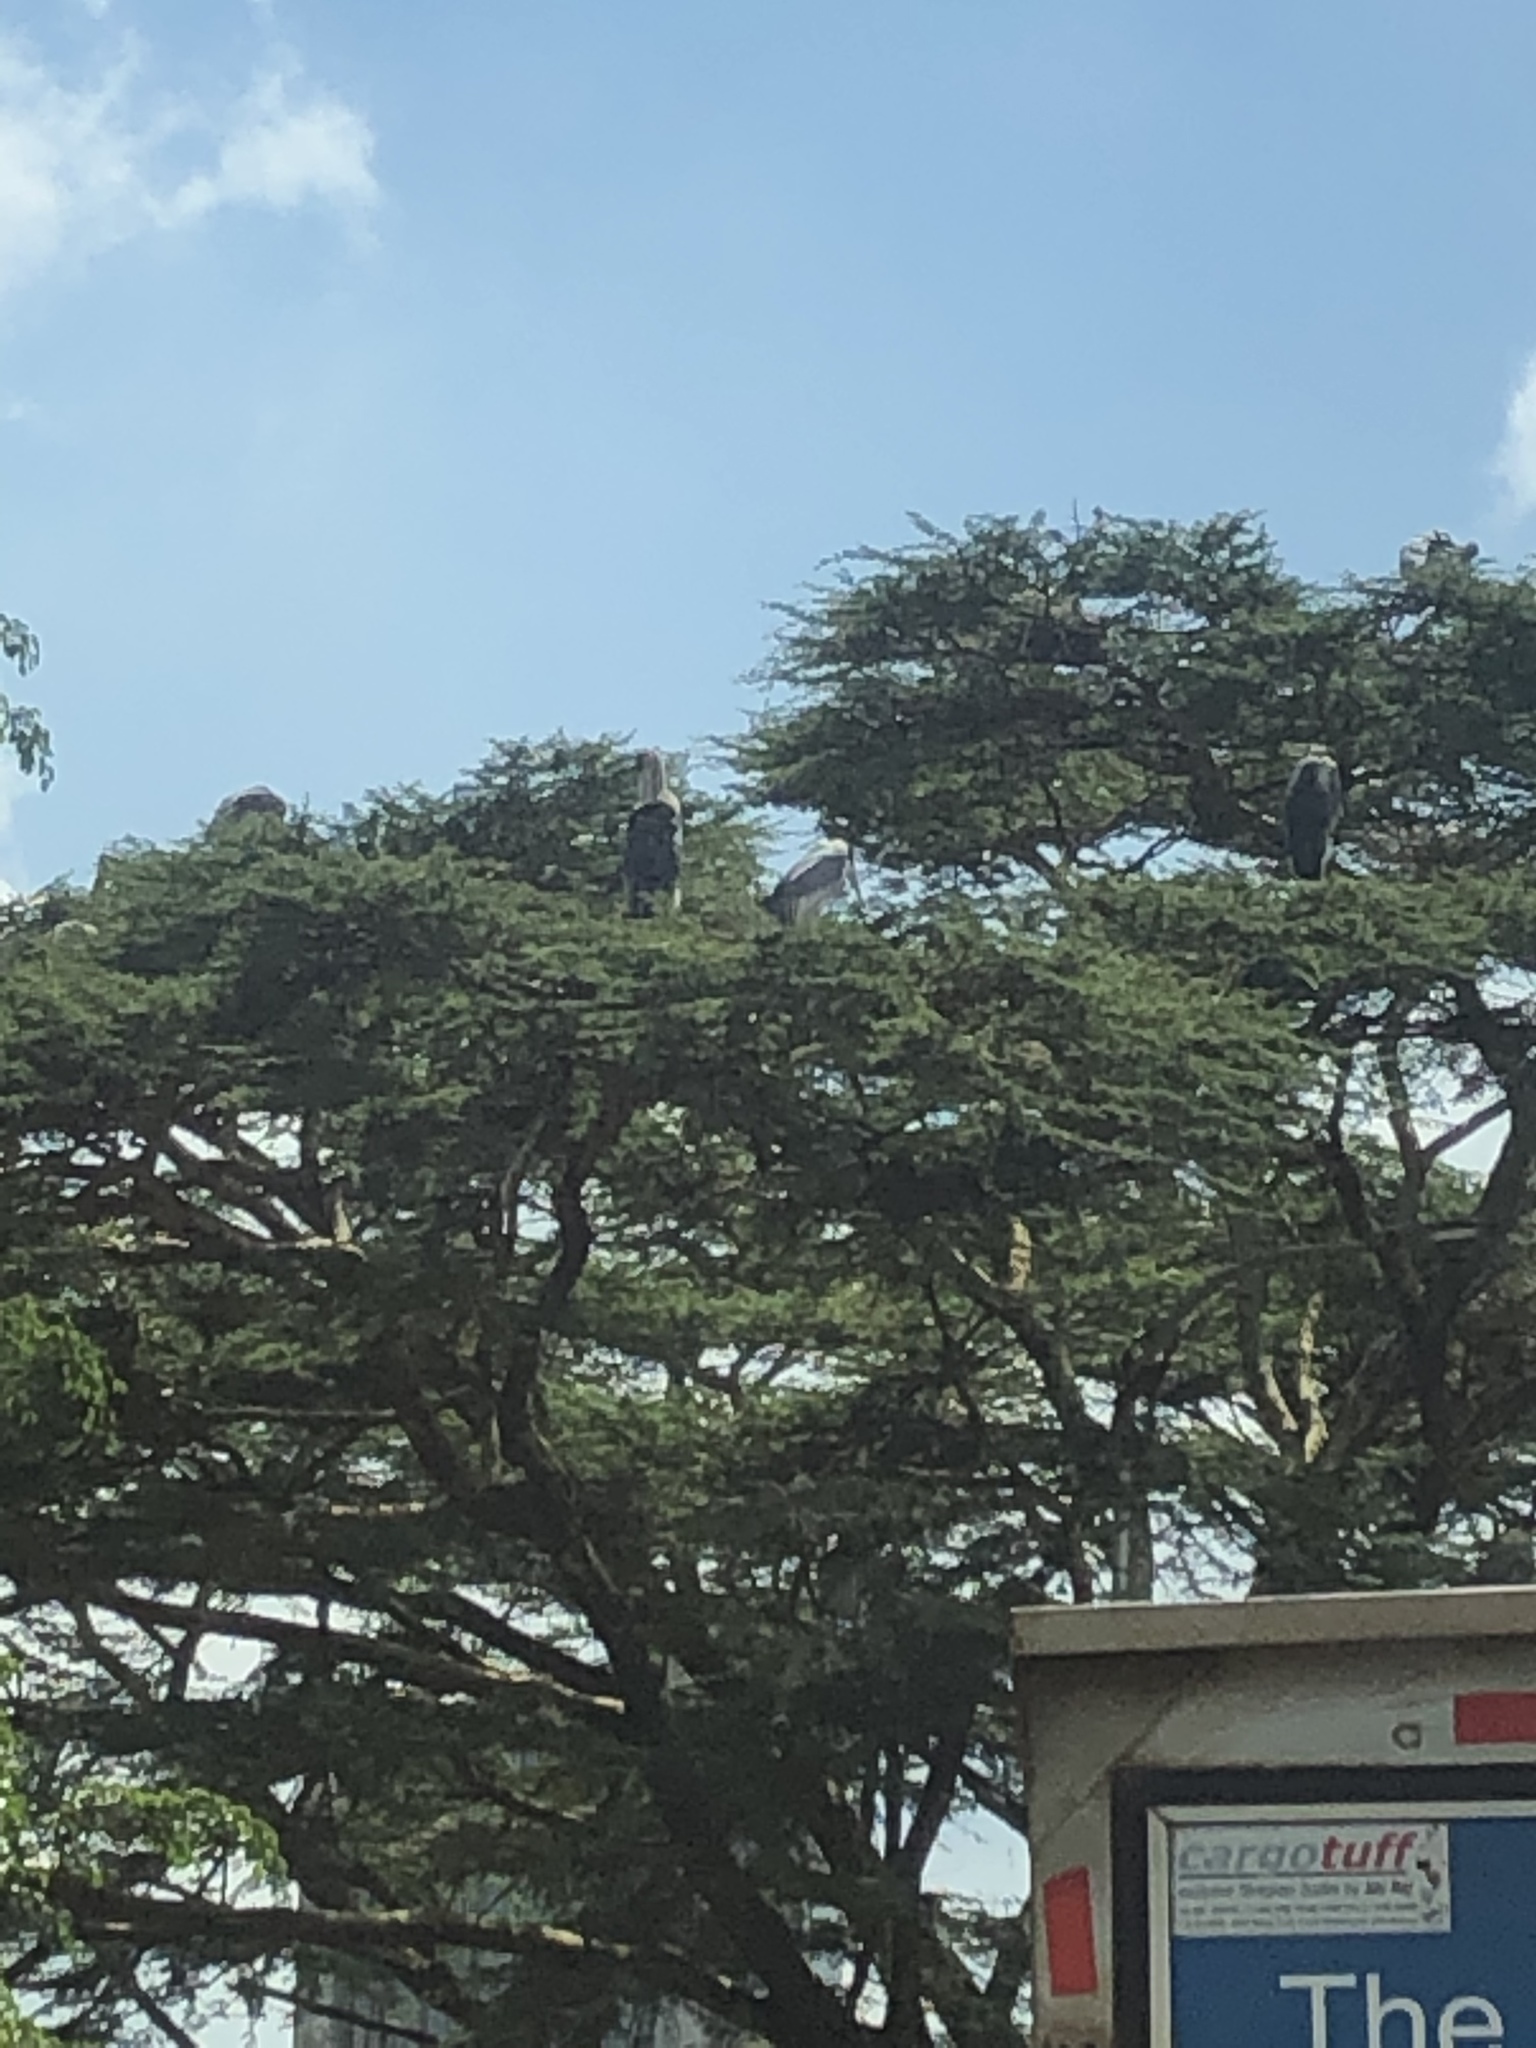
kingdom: Animalia
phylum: Chordata
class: Aves
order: Ciconiiformes
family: Ciconiidae
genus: Leptoptilos
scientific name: Leptoptilos crumenifer
